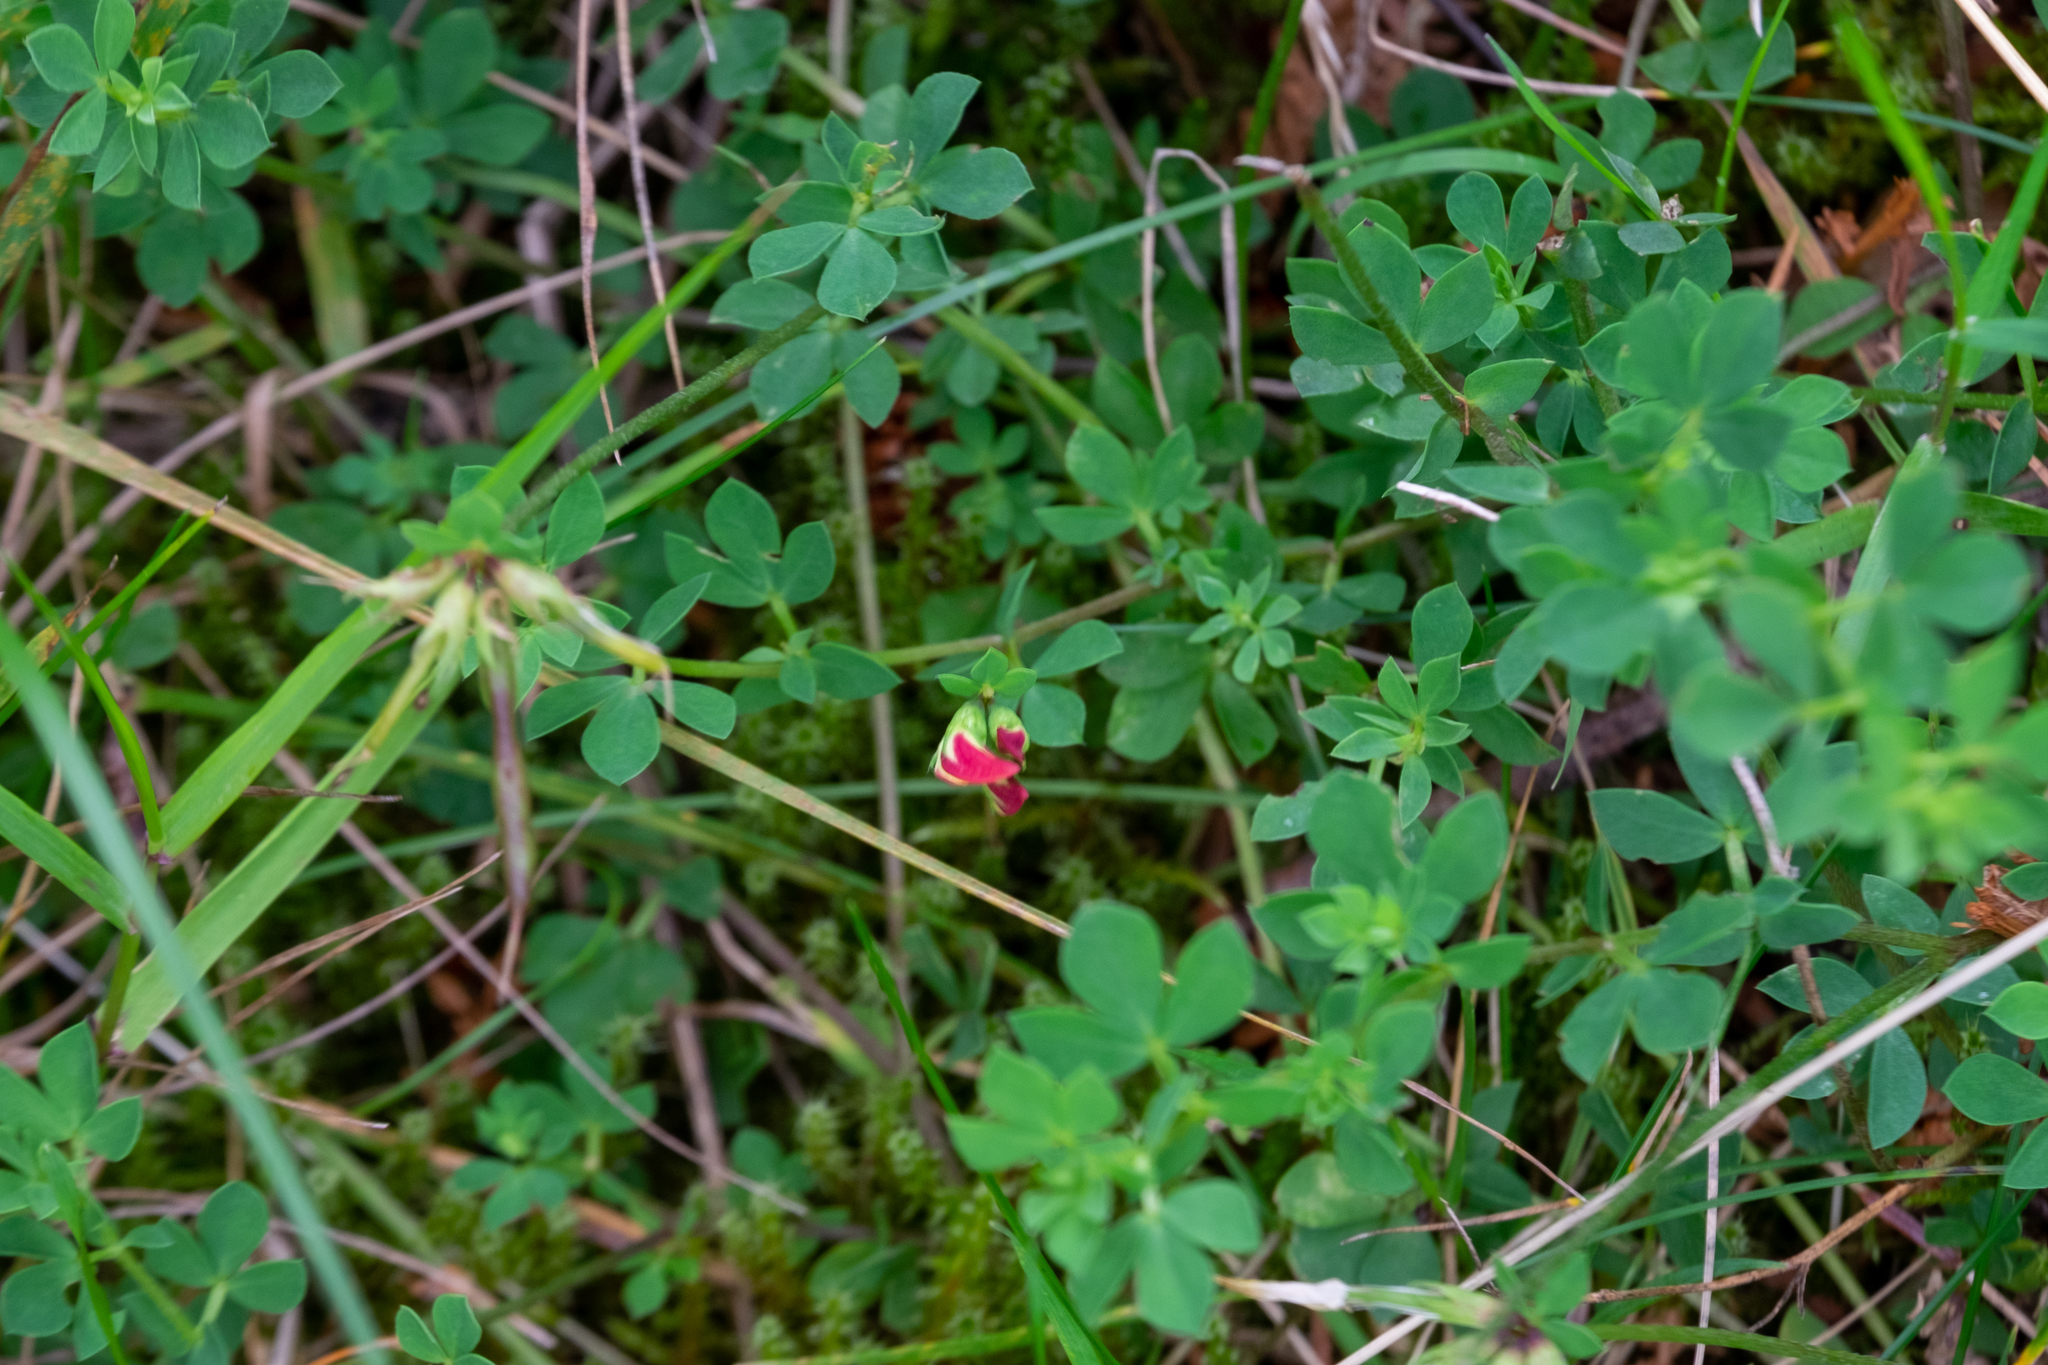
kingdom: Plantae
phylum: Tracheophyta
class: Magnoliopsida
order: Fabales
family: Fabaceae
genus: Lotus
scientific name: Lotus corniculatus
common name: Common bird's-foot-trefoil
